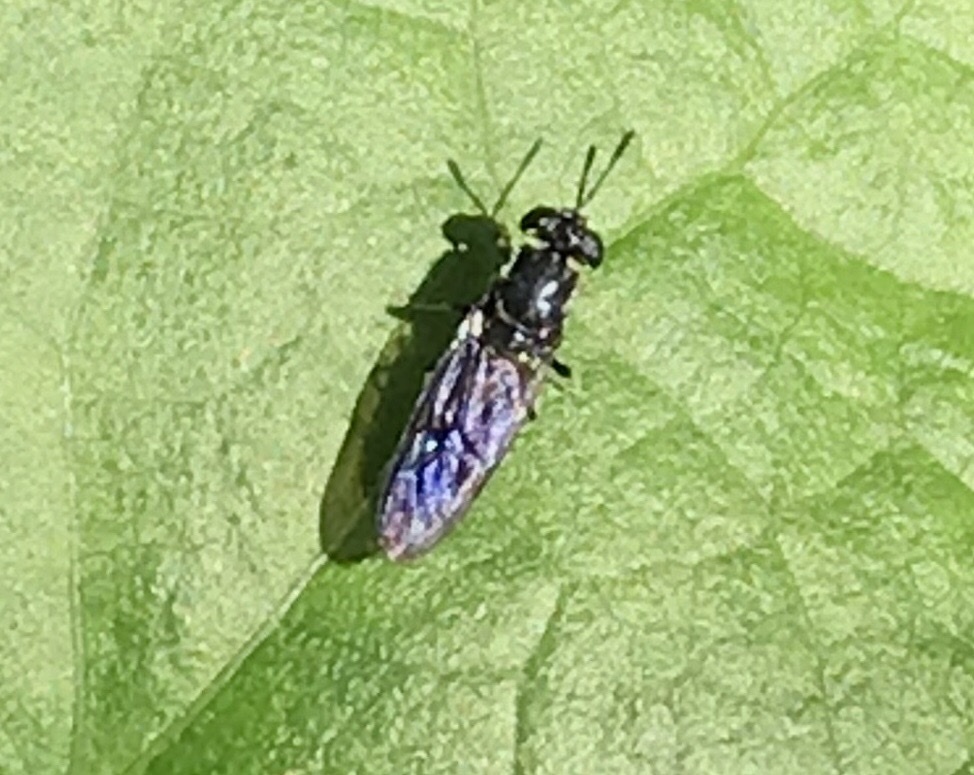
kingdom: Animalia
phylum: Arthropoda
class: Insecta
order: Diptera
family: Stratiomyidae
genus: Hermetia
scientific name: Hermetia illucens
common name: Black soldier fly
